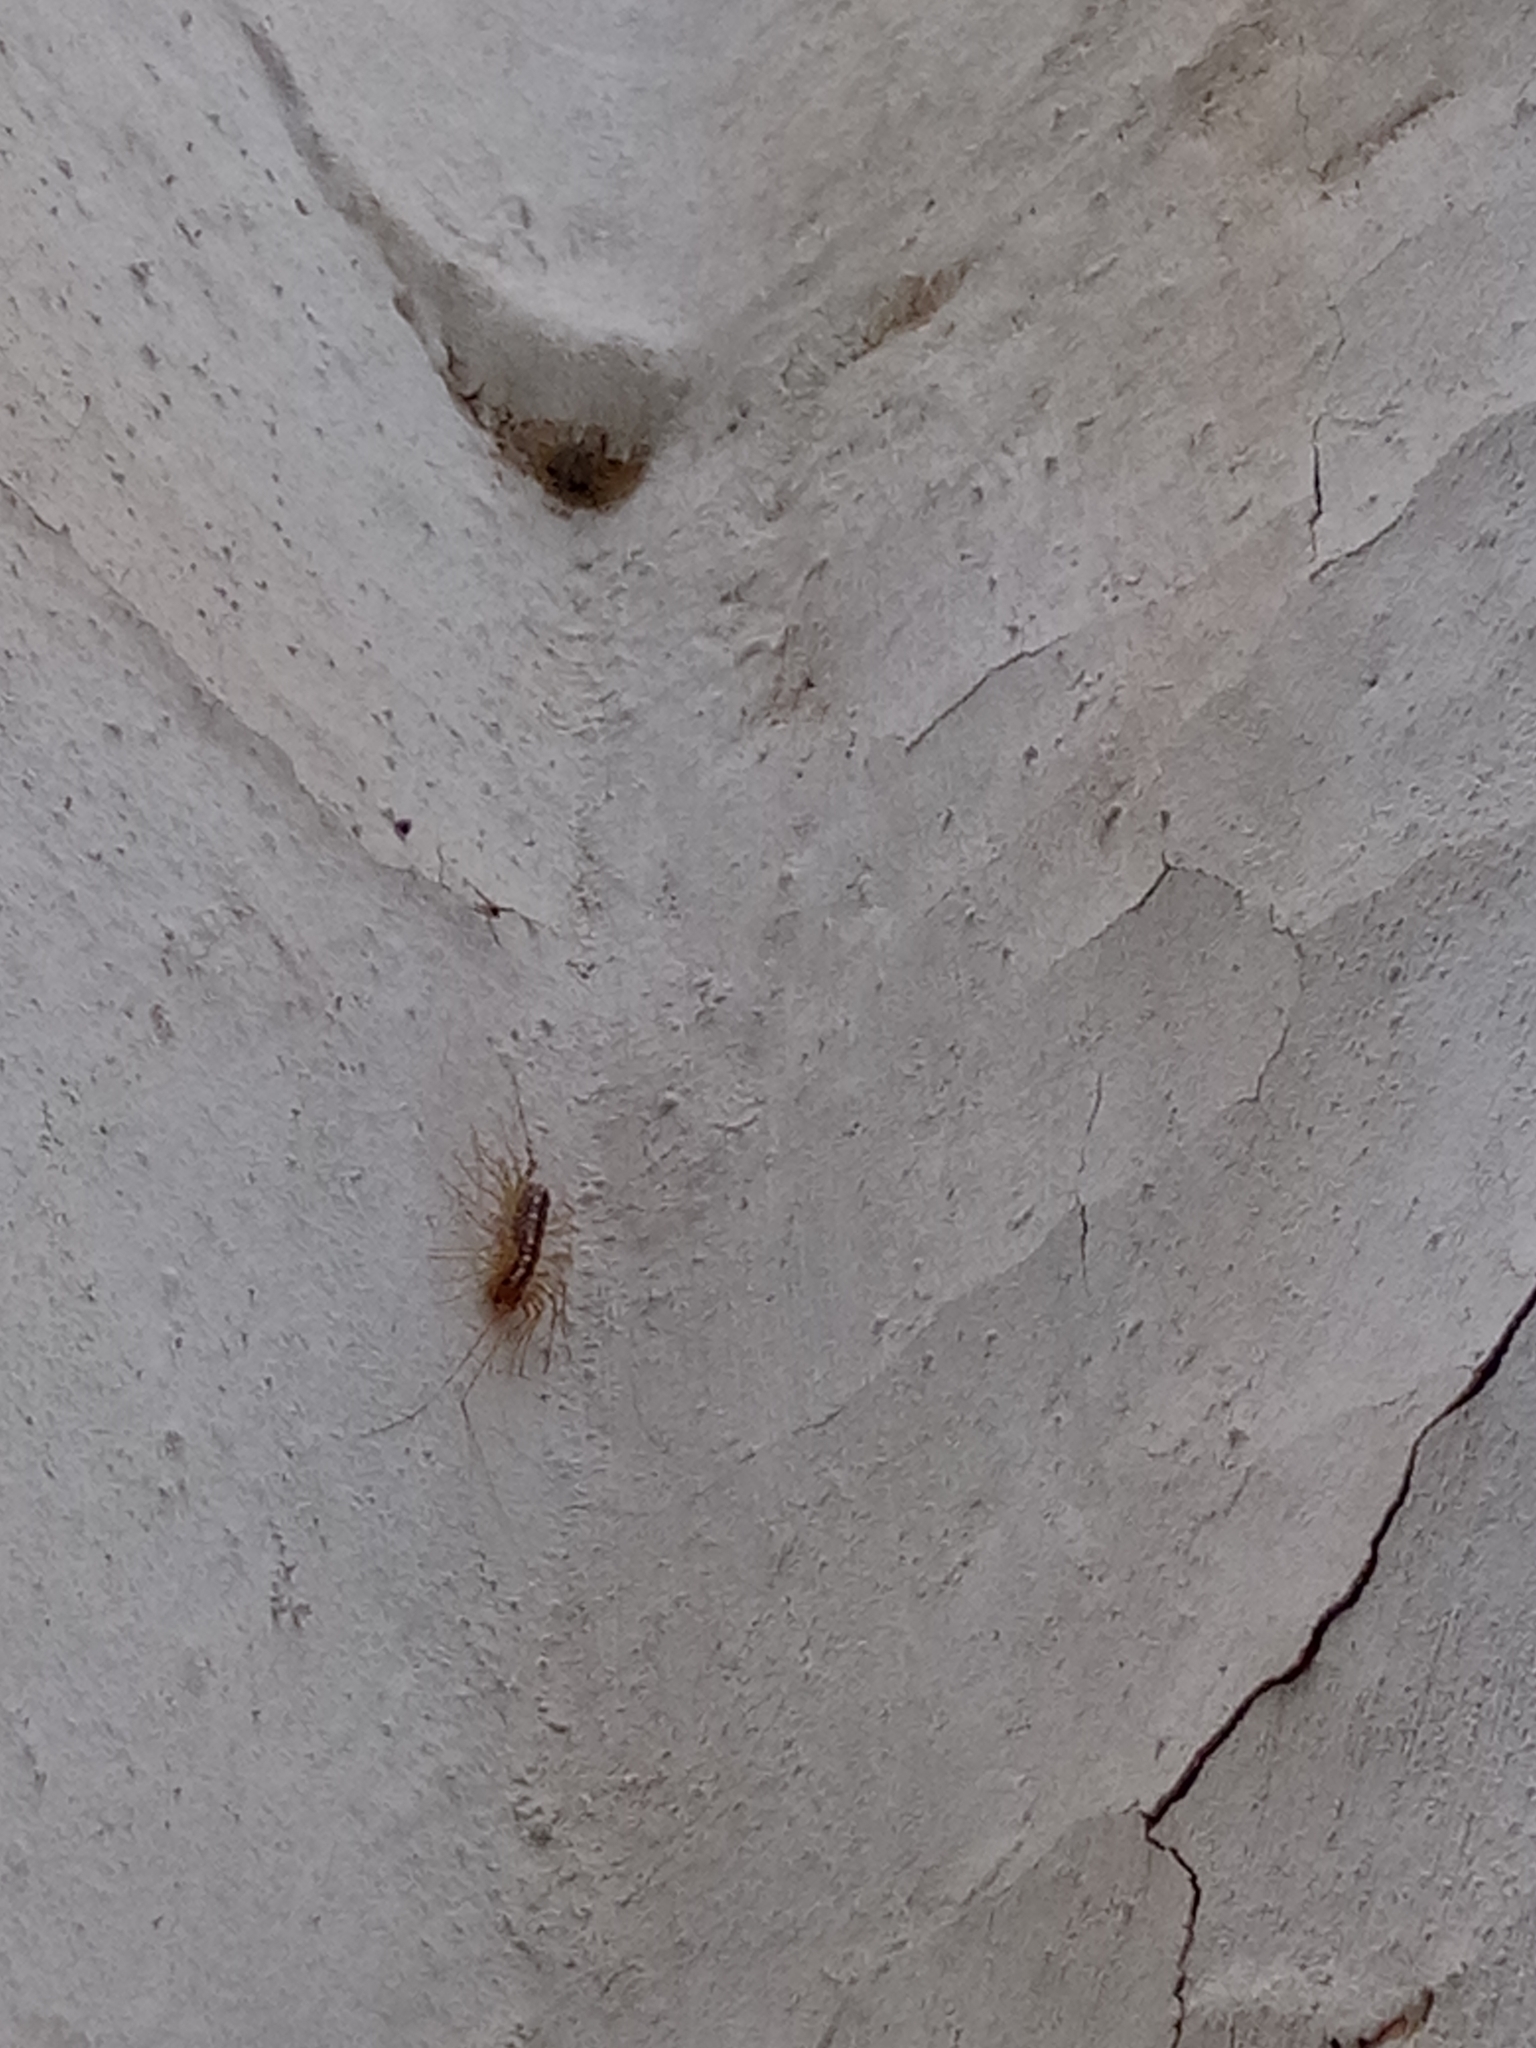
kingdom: Animalia
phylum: Arthropoda
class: Chilopoda
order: Scutigeromorpha
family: Scutigeridae
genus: Scutigera
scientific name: Scutigera coleoptrata
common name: House centipede
